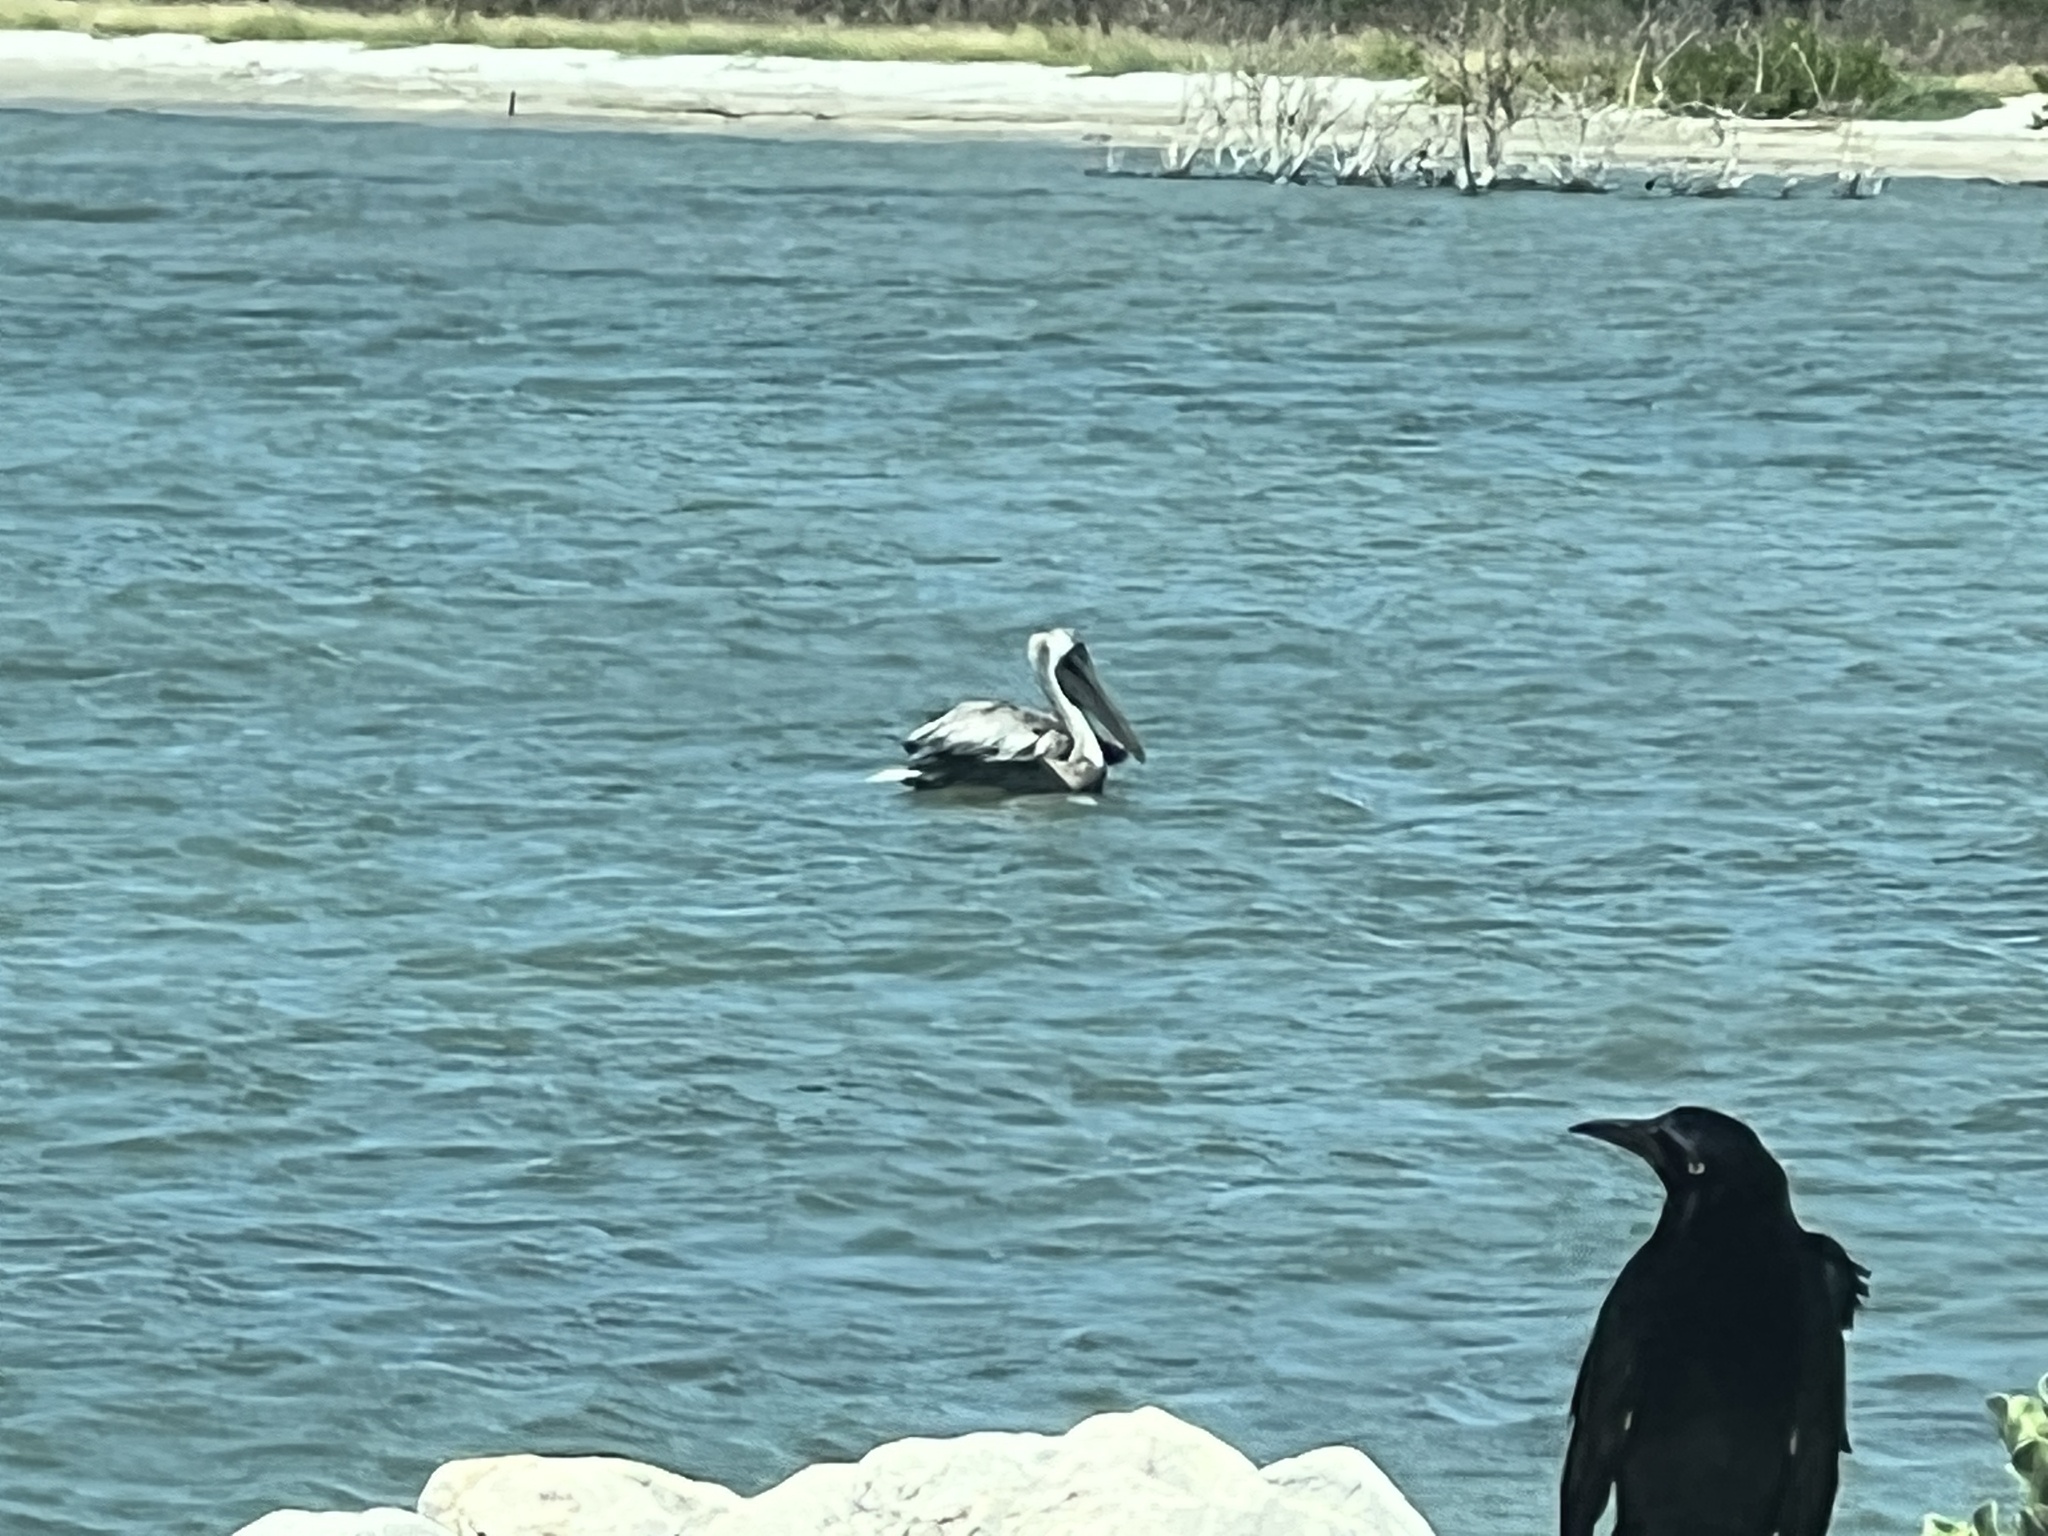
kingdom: Animalia
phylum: Chordata
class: Aves
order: Pelecaniformes
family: Pelecanidae
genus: Pelecanus
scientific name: Pelecanus occidentalis
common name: Brown pelican
